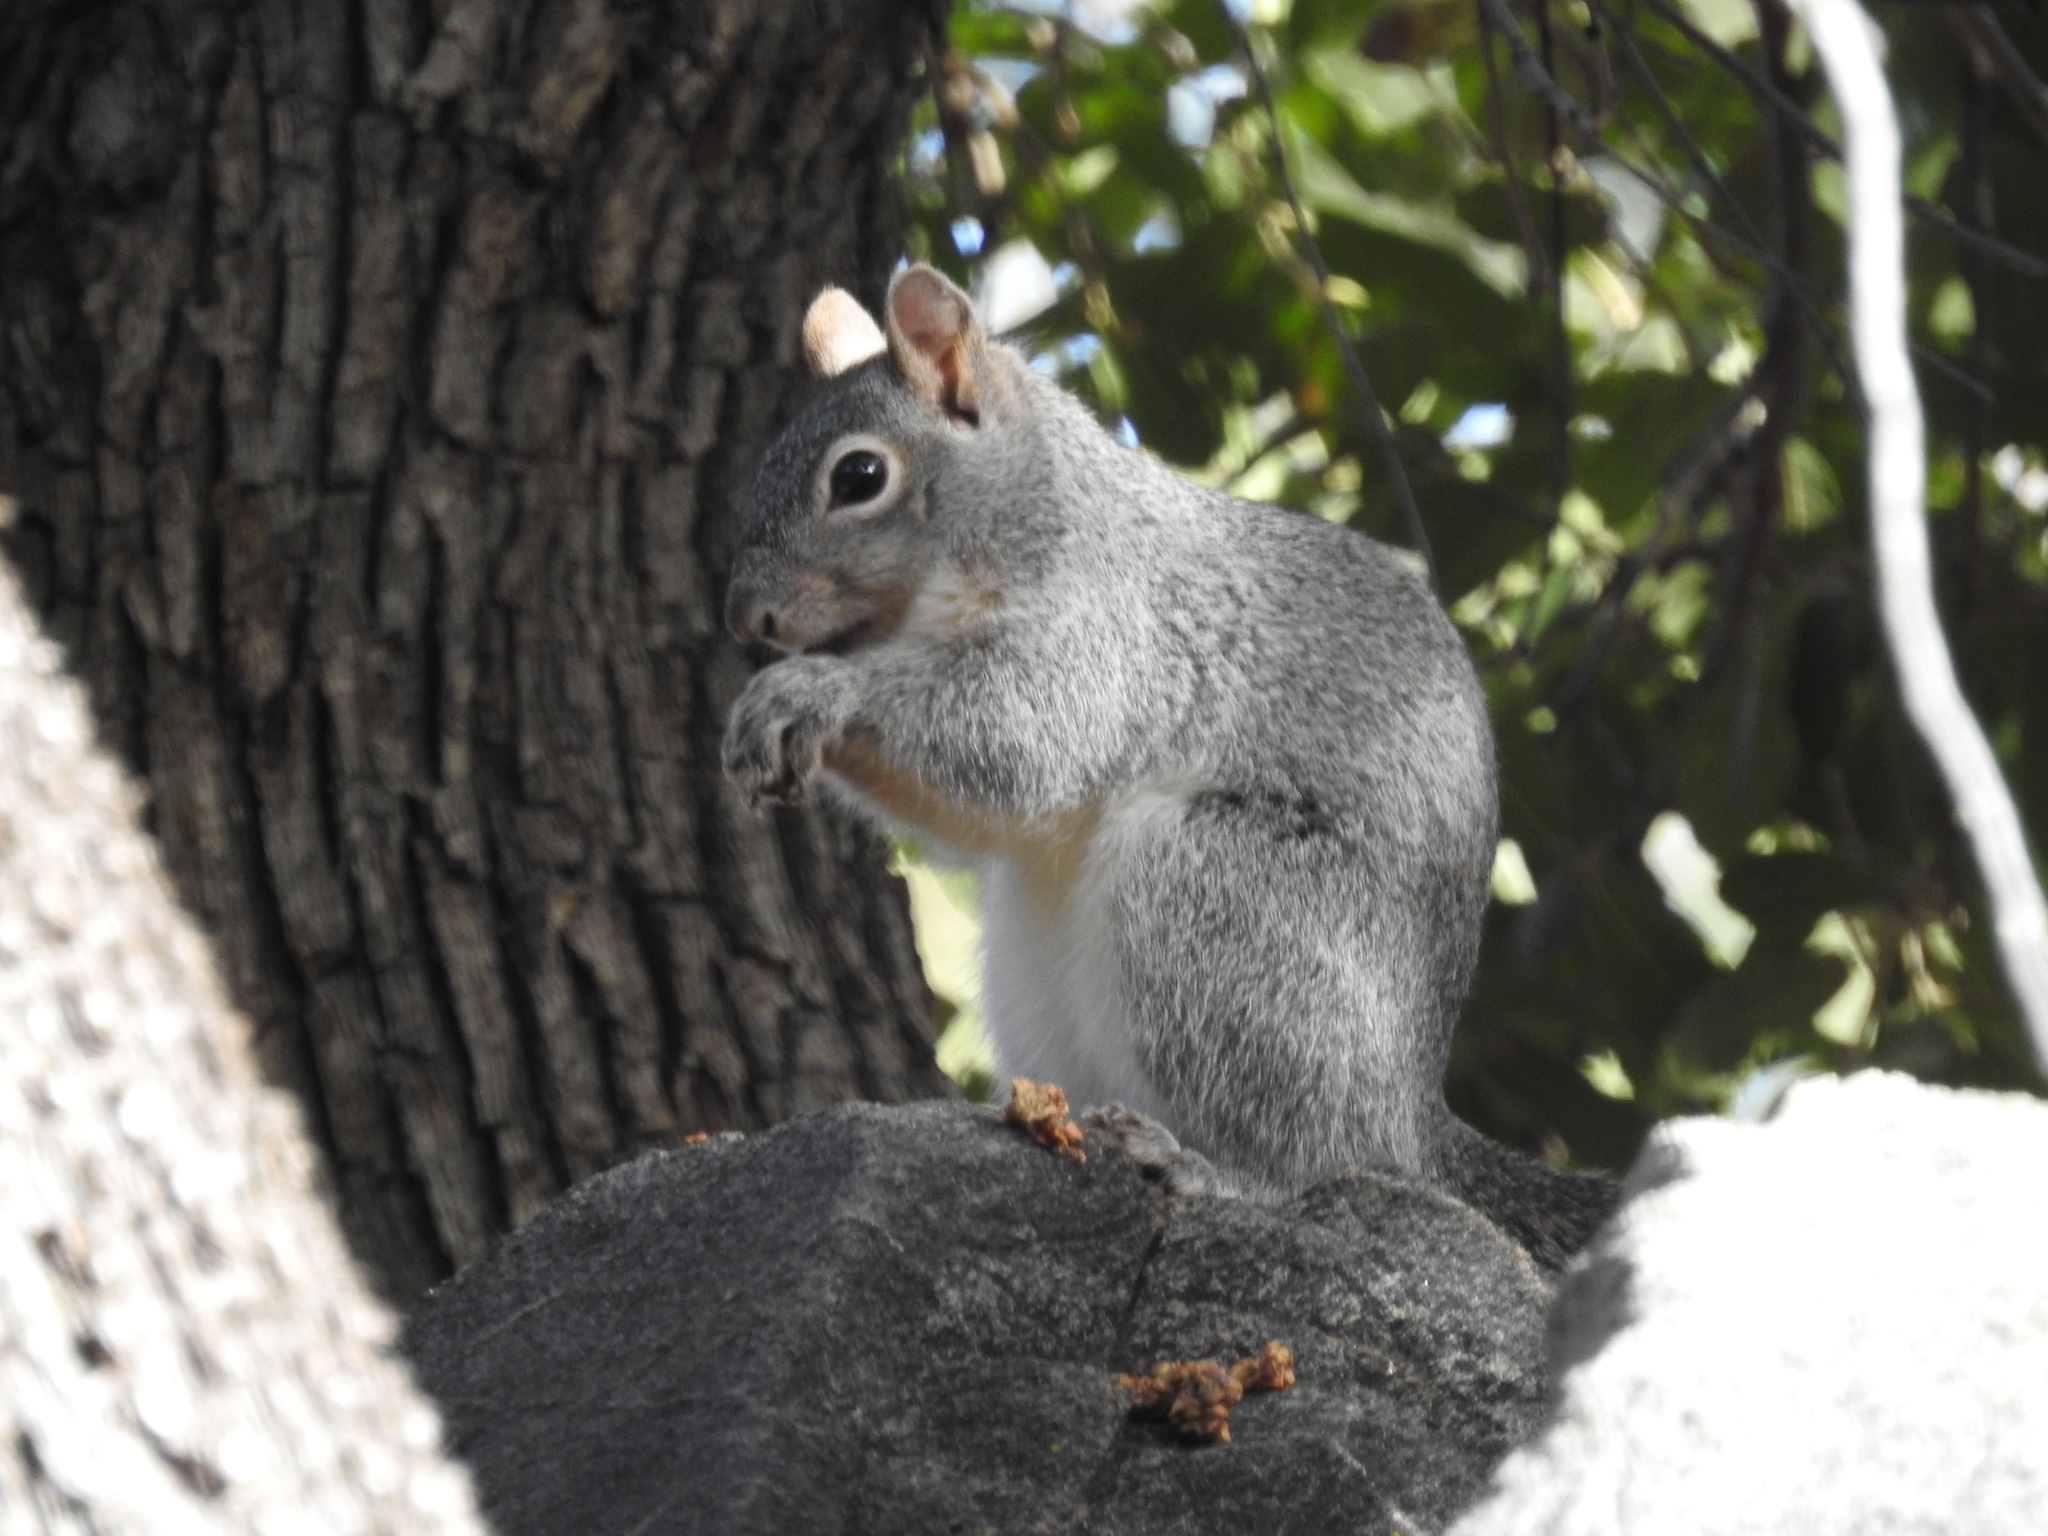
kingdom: Animalia
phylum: Chordata
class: Mammalia
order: Rodentia
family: Sciuridae
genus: Sciurus
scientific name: Sciurus arizonensis
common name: Arizona gray squirrel
